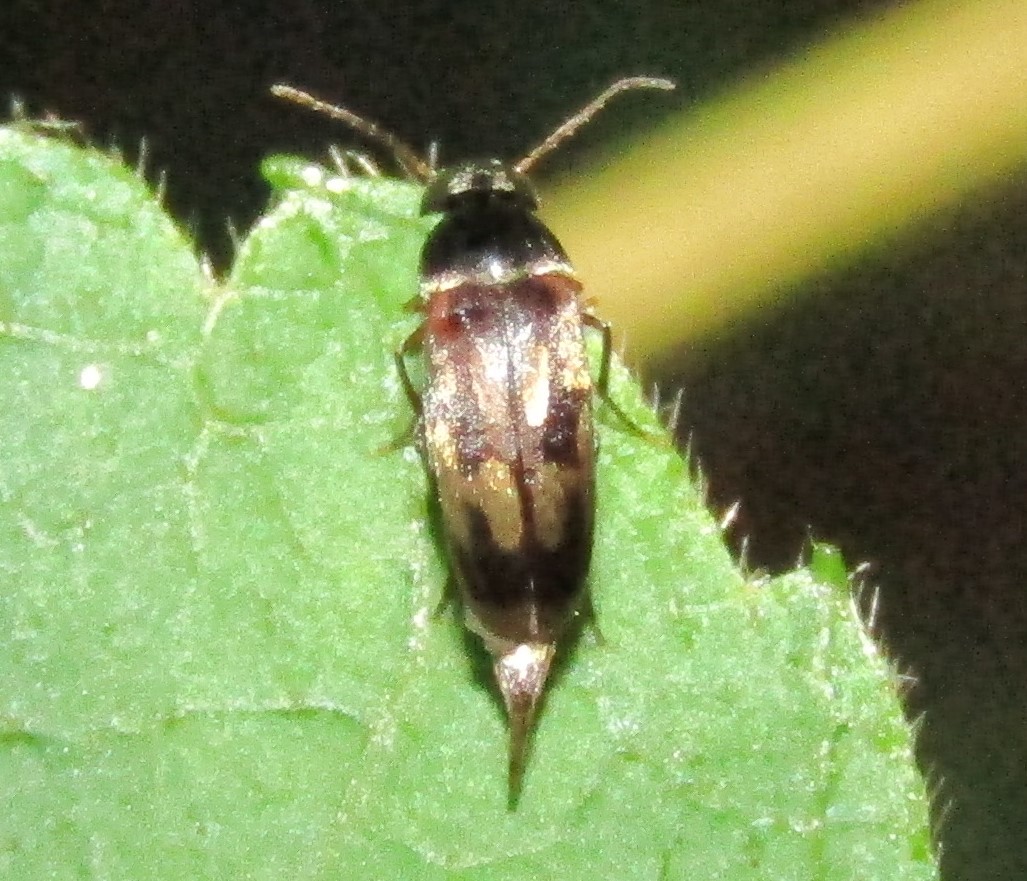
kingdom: Animalia
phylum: Arthropoda
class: Insecta
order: Coleoptera
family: Mordellidae
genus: Falsomordellistena
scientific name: Falsomordellistena bihamata
